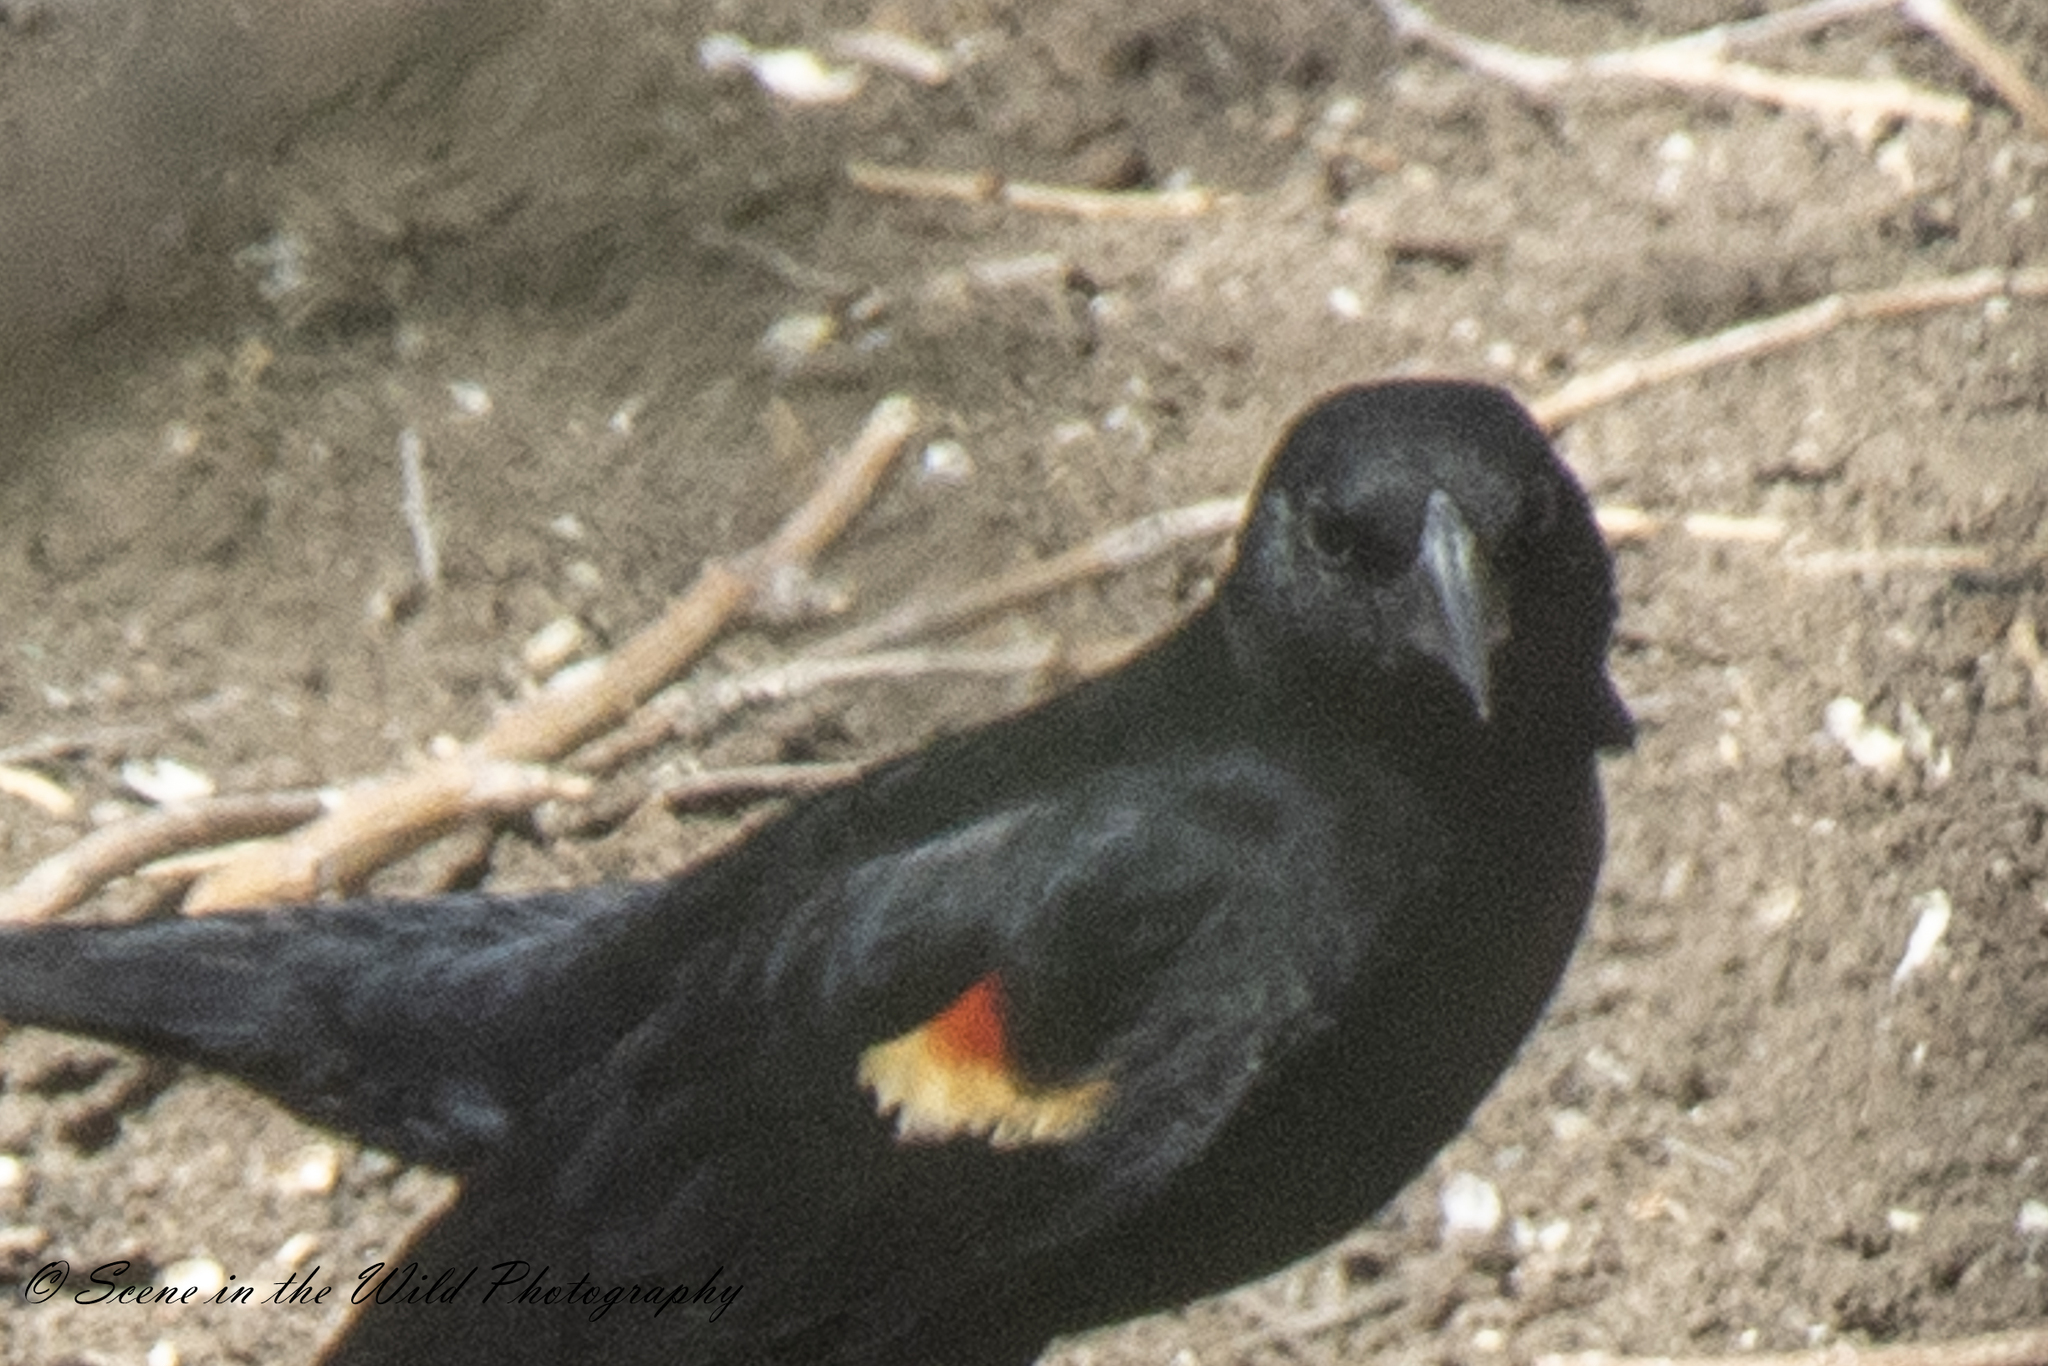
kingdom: Animalia
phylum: Chordata
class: Aves
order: Passeriformes
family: Icteridae
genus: Agelaius
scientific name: Agelaius phoeniceus
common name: Red-winged blackbird
